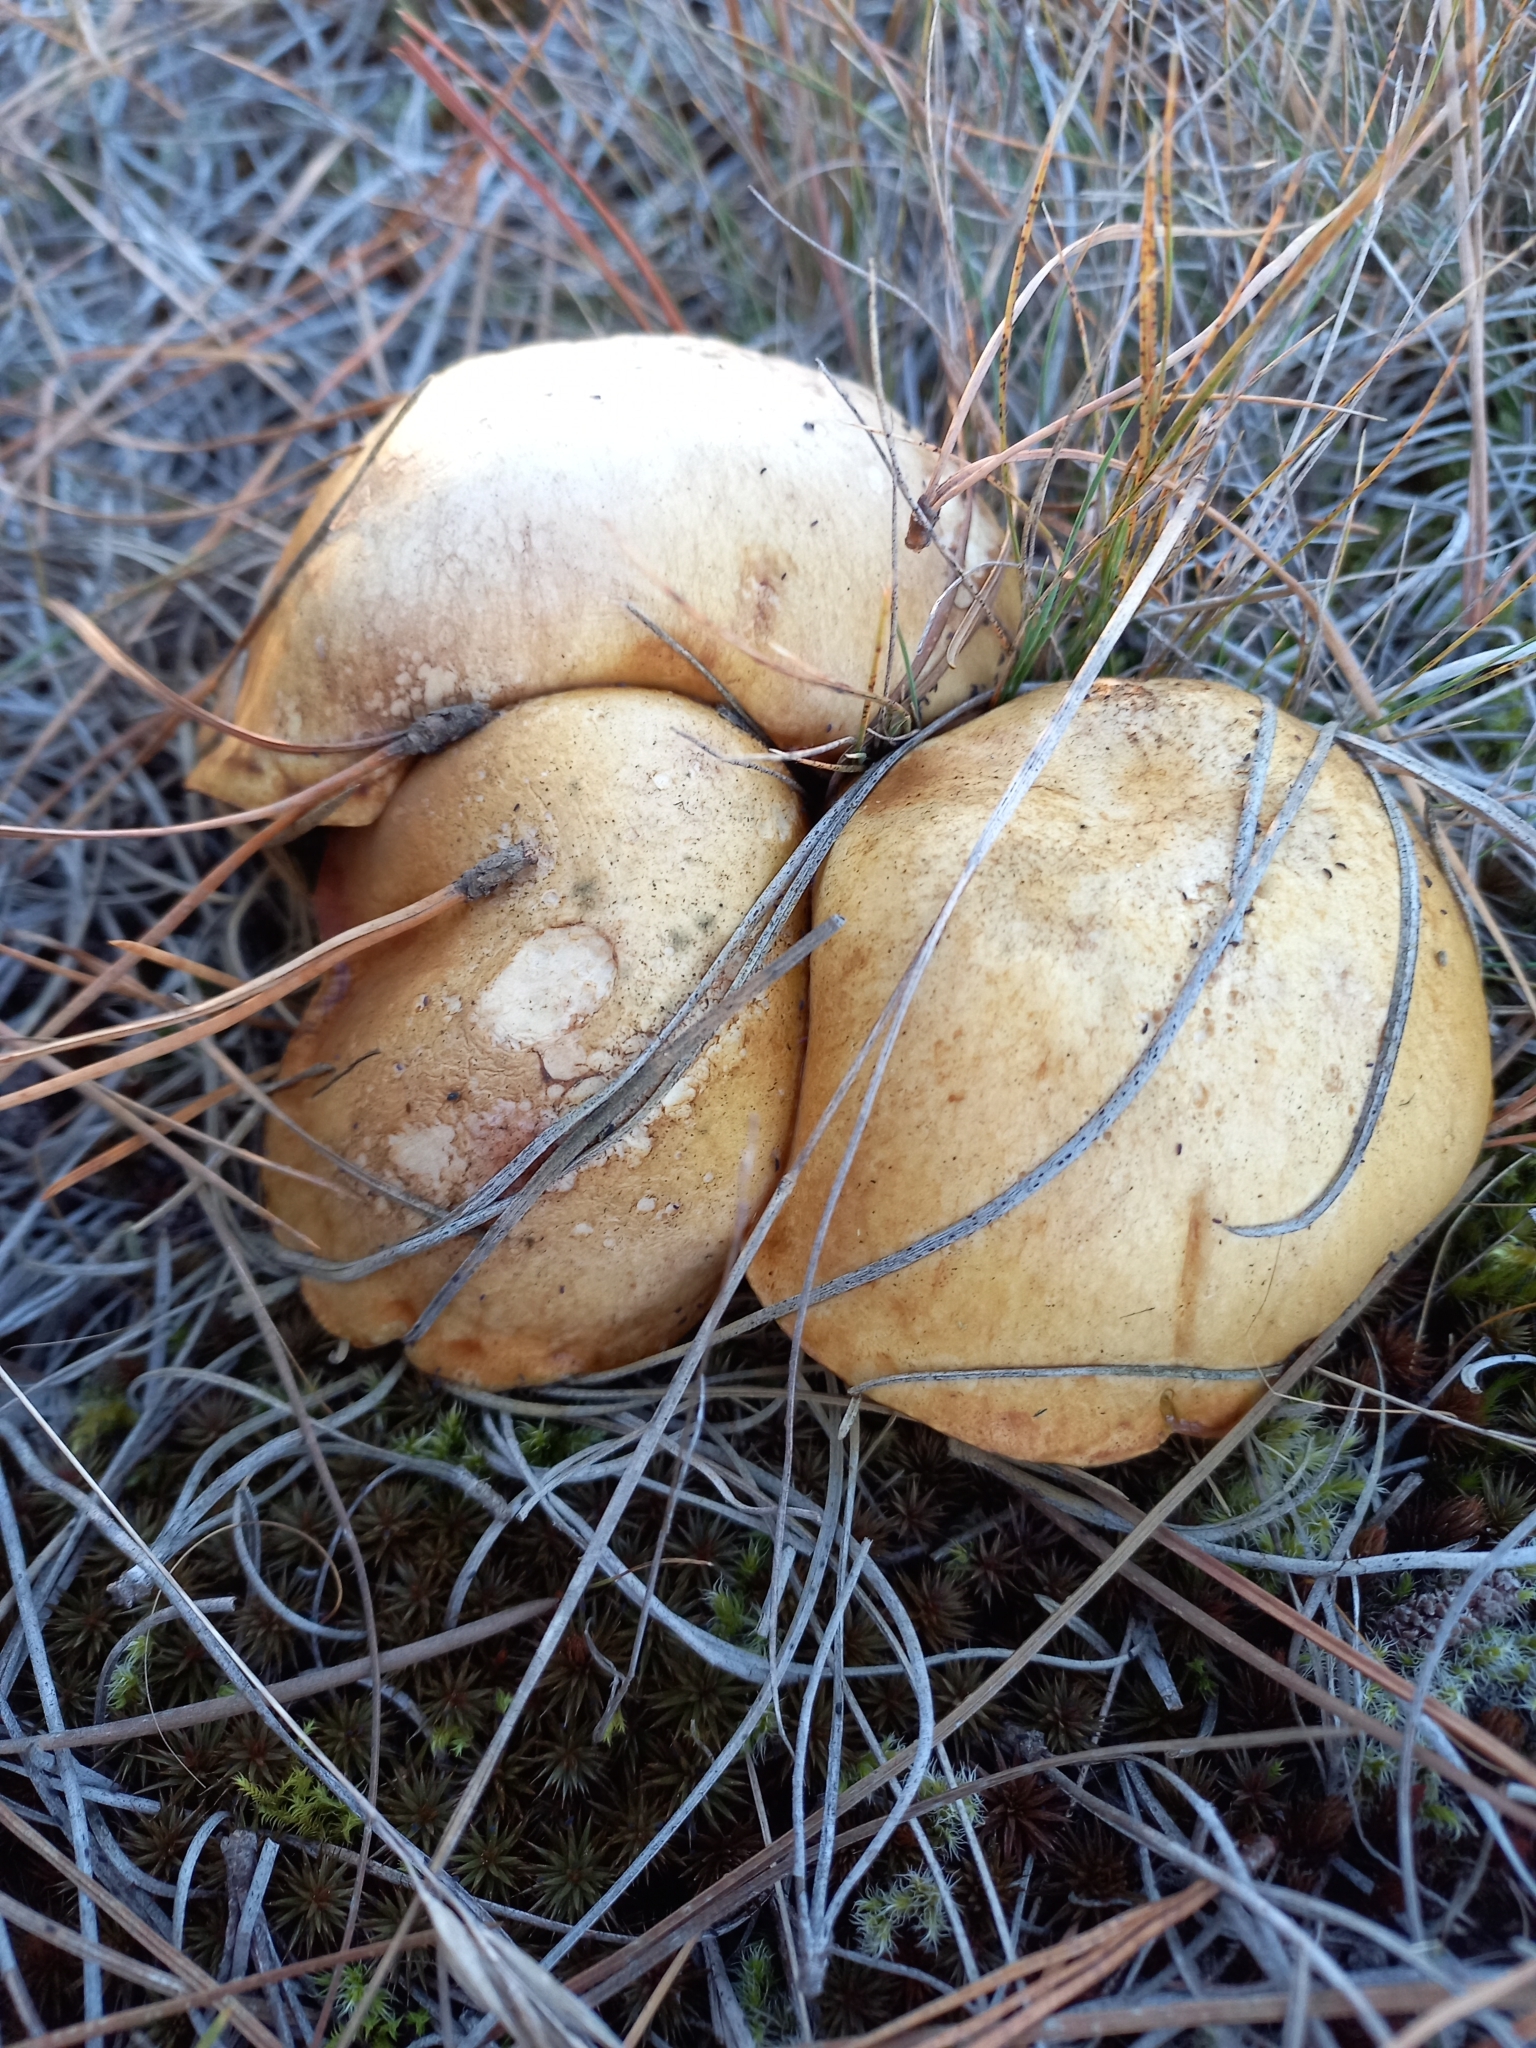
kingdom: Fungi
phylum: Basidiomycota
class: Agaricomycetes
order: Boletales
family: Suillaceae
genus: Suillus
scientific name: Suillus granulatus
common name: Weeping bolete
